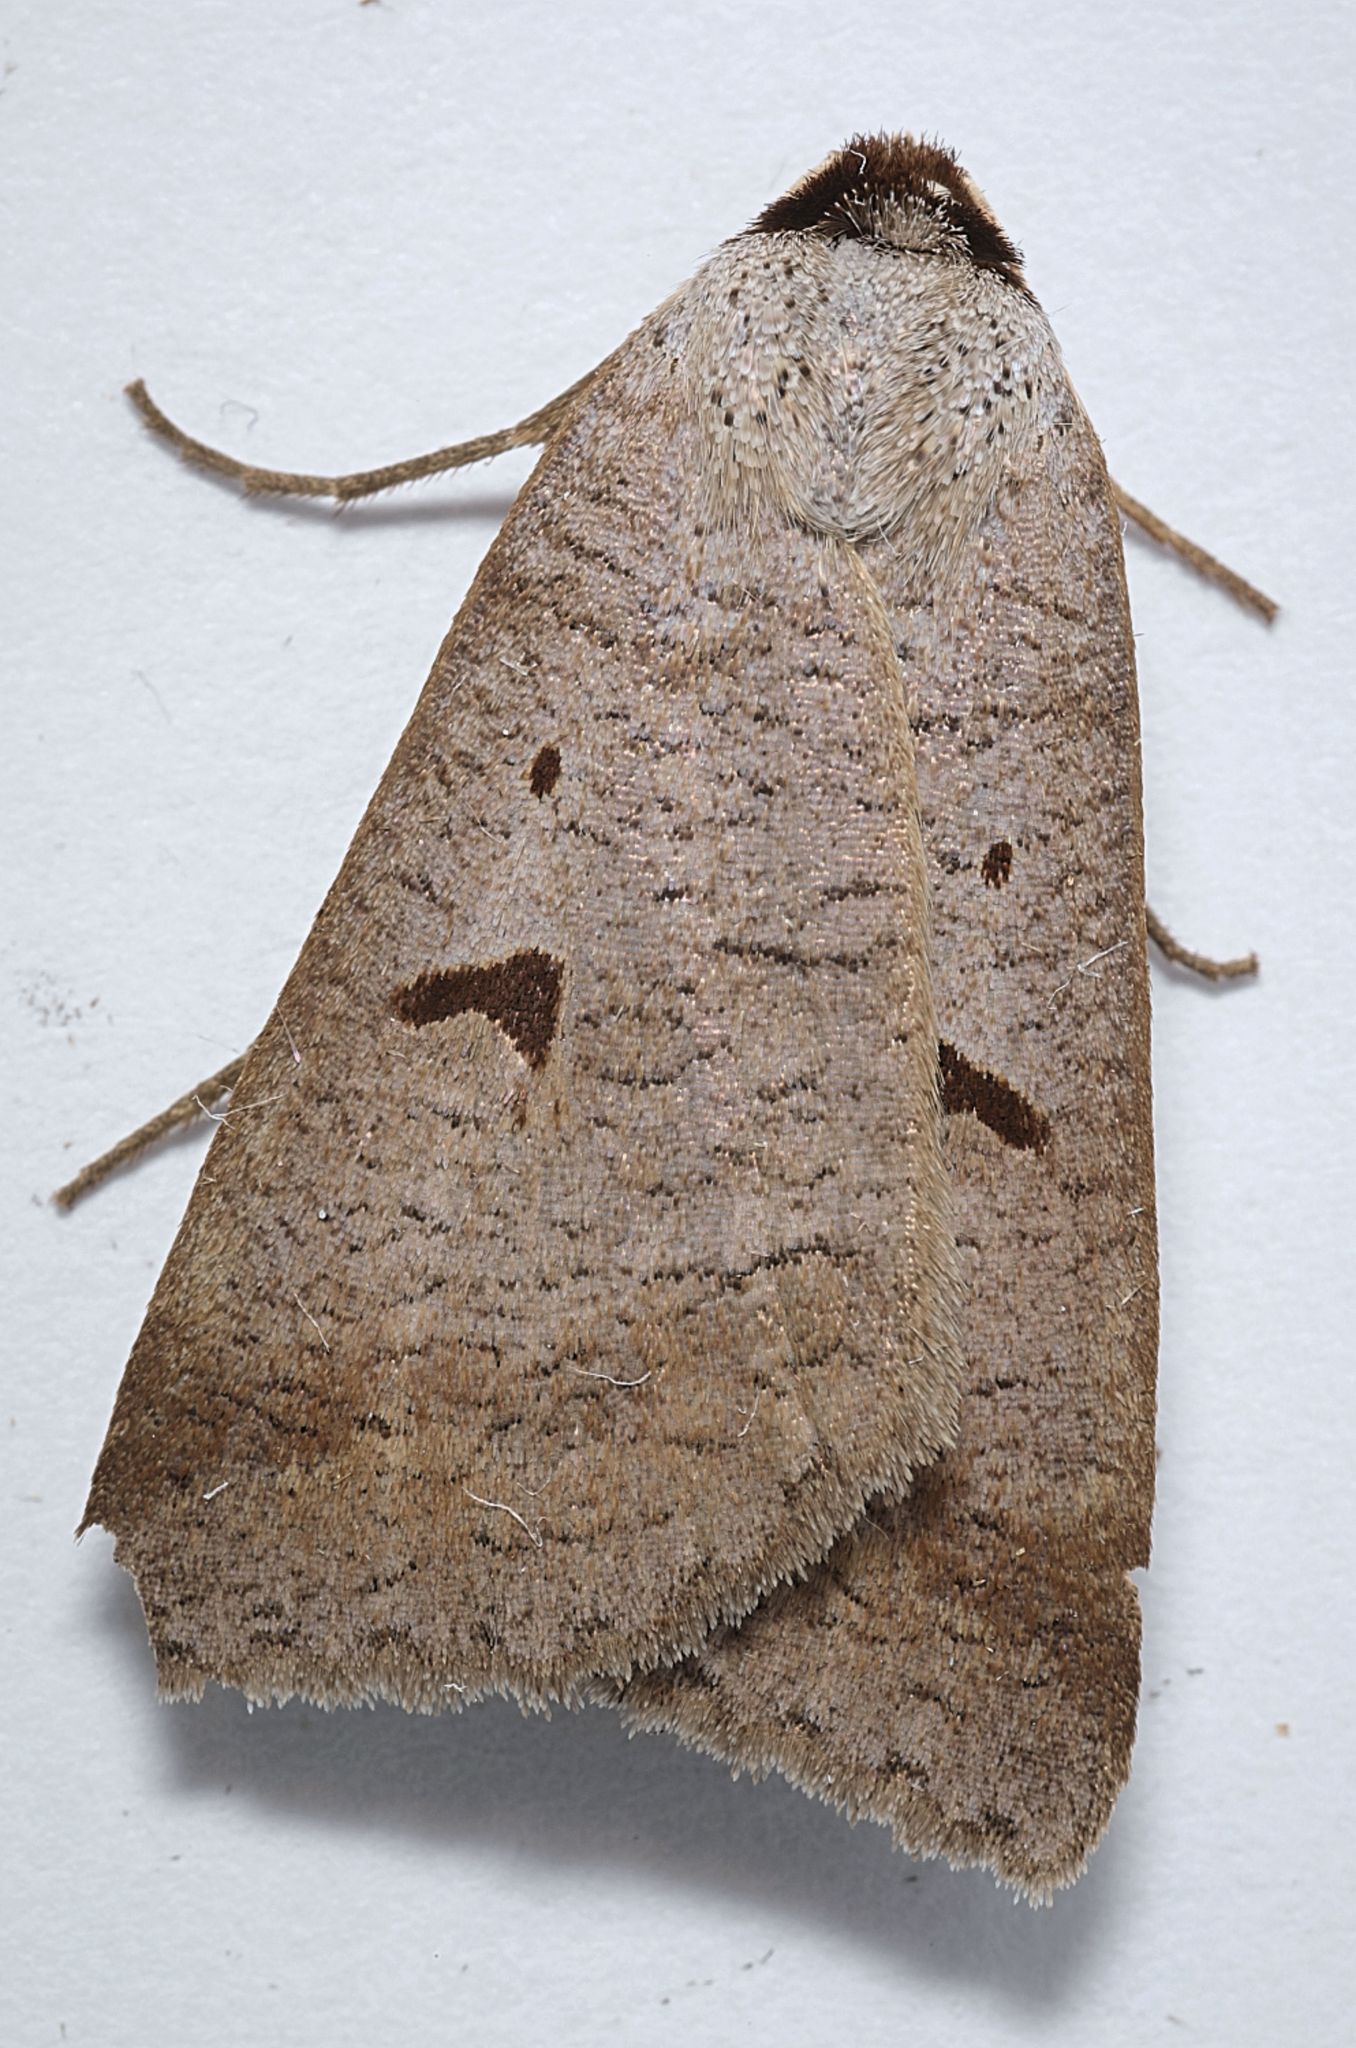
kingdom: Animalia
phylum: Arthropoda
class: Insecta
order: Lepidoptera
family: Erebidae
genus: Lygephila
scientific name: Lygephila pastinum
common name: Blackneck
